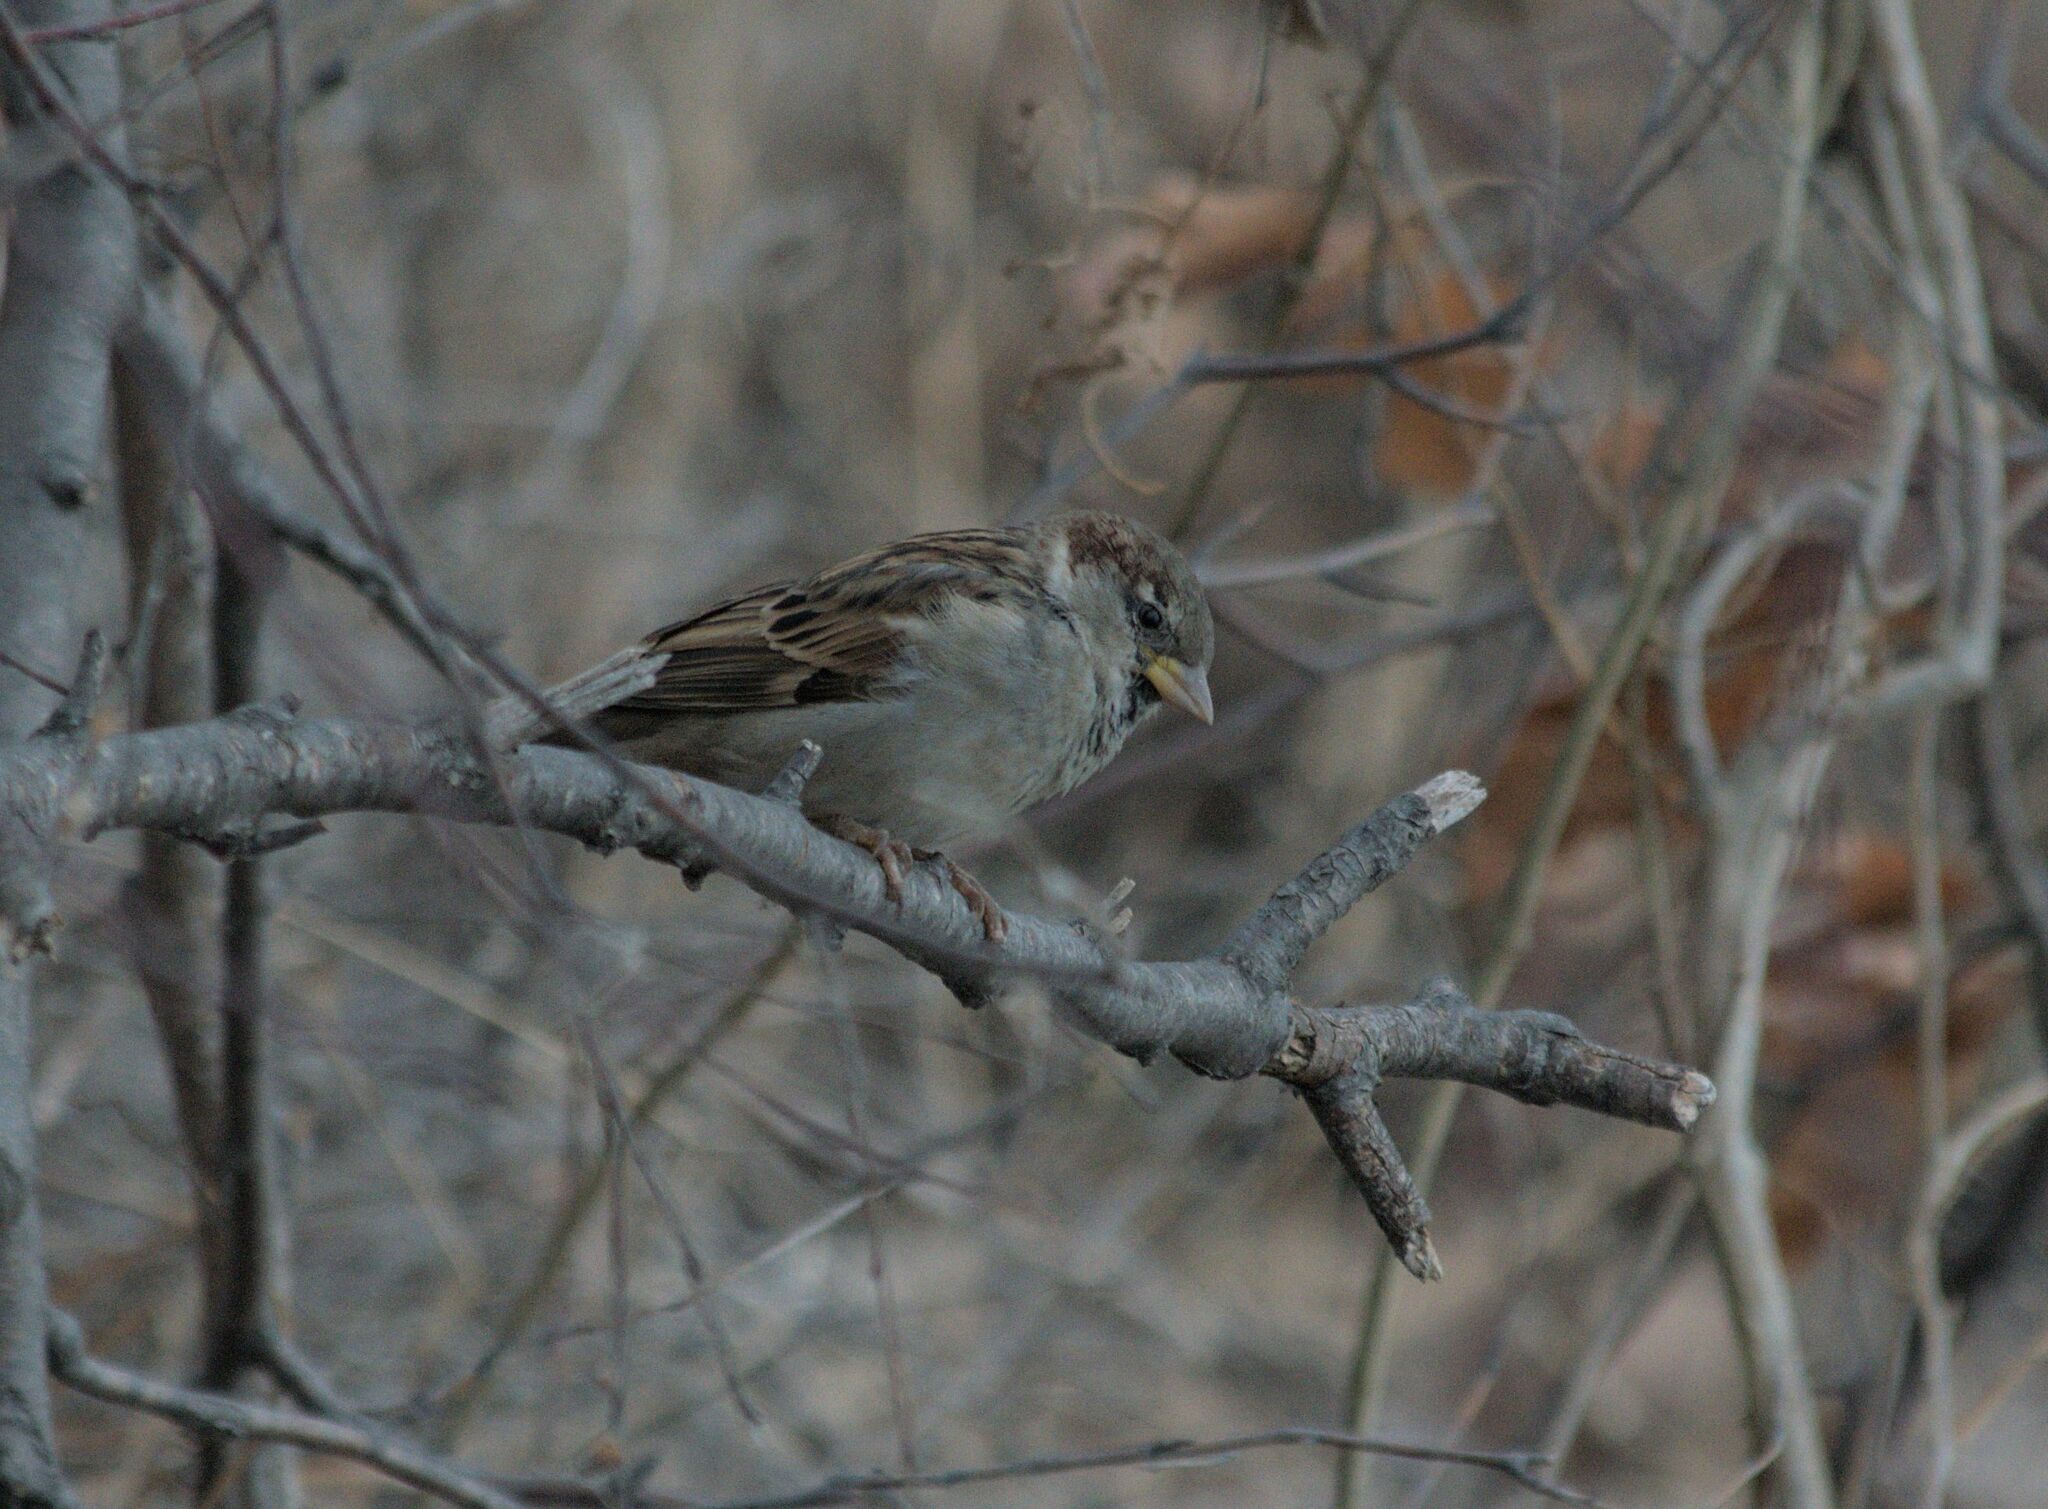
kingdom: Animalia
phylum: Chordata
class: Aves
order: Passeriformes
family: Passeridae
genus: Passer
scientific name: Passer domesticus
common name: House sparrow
